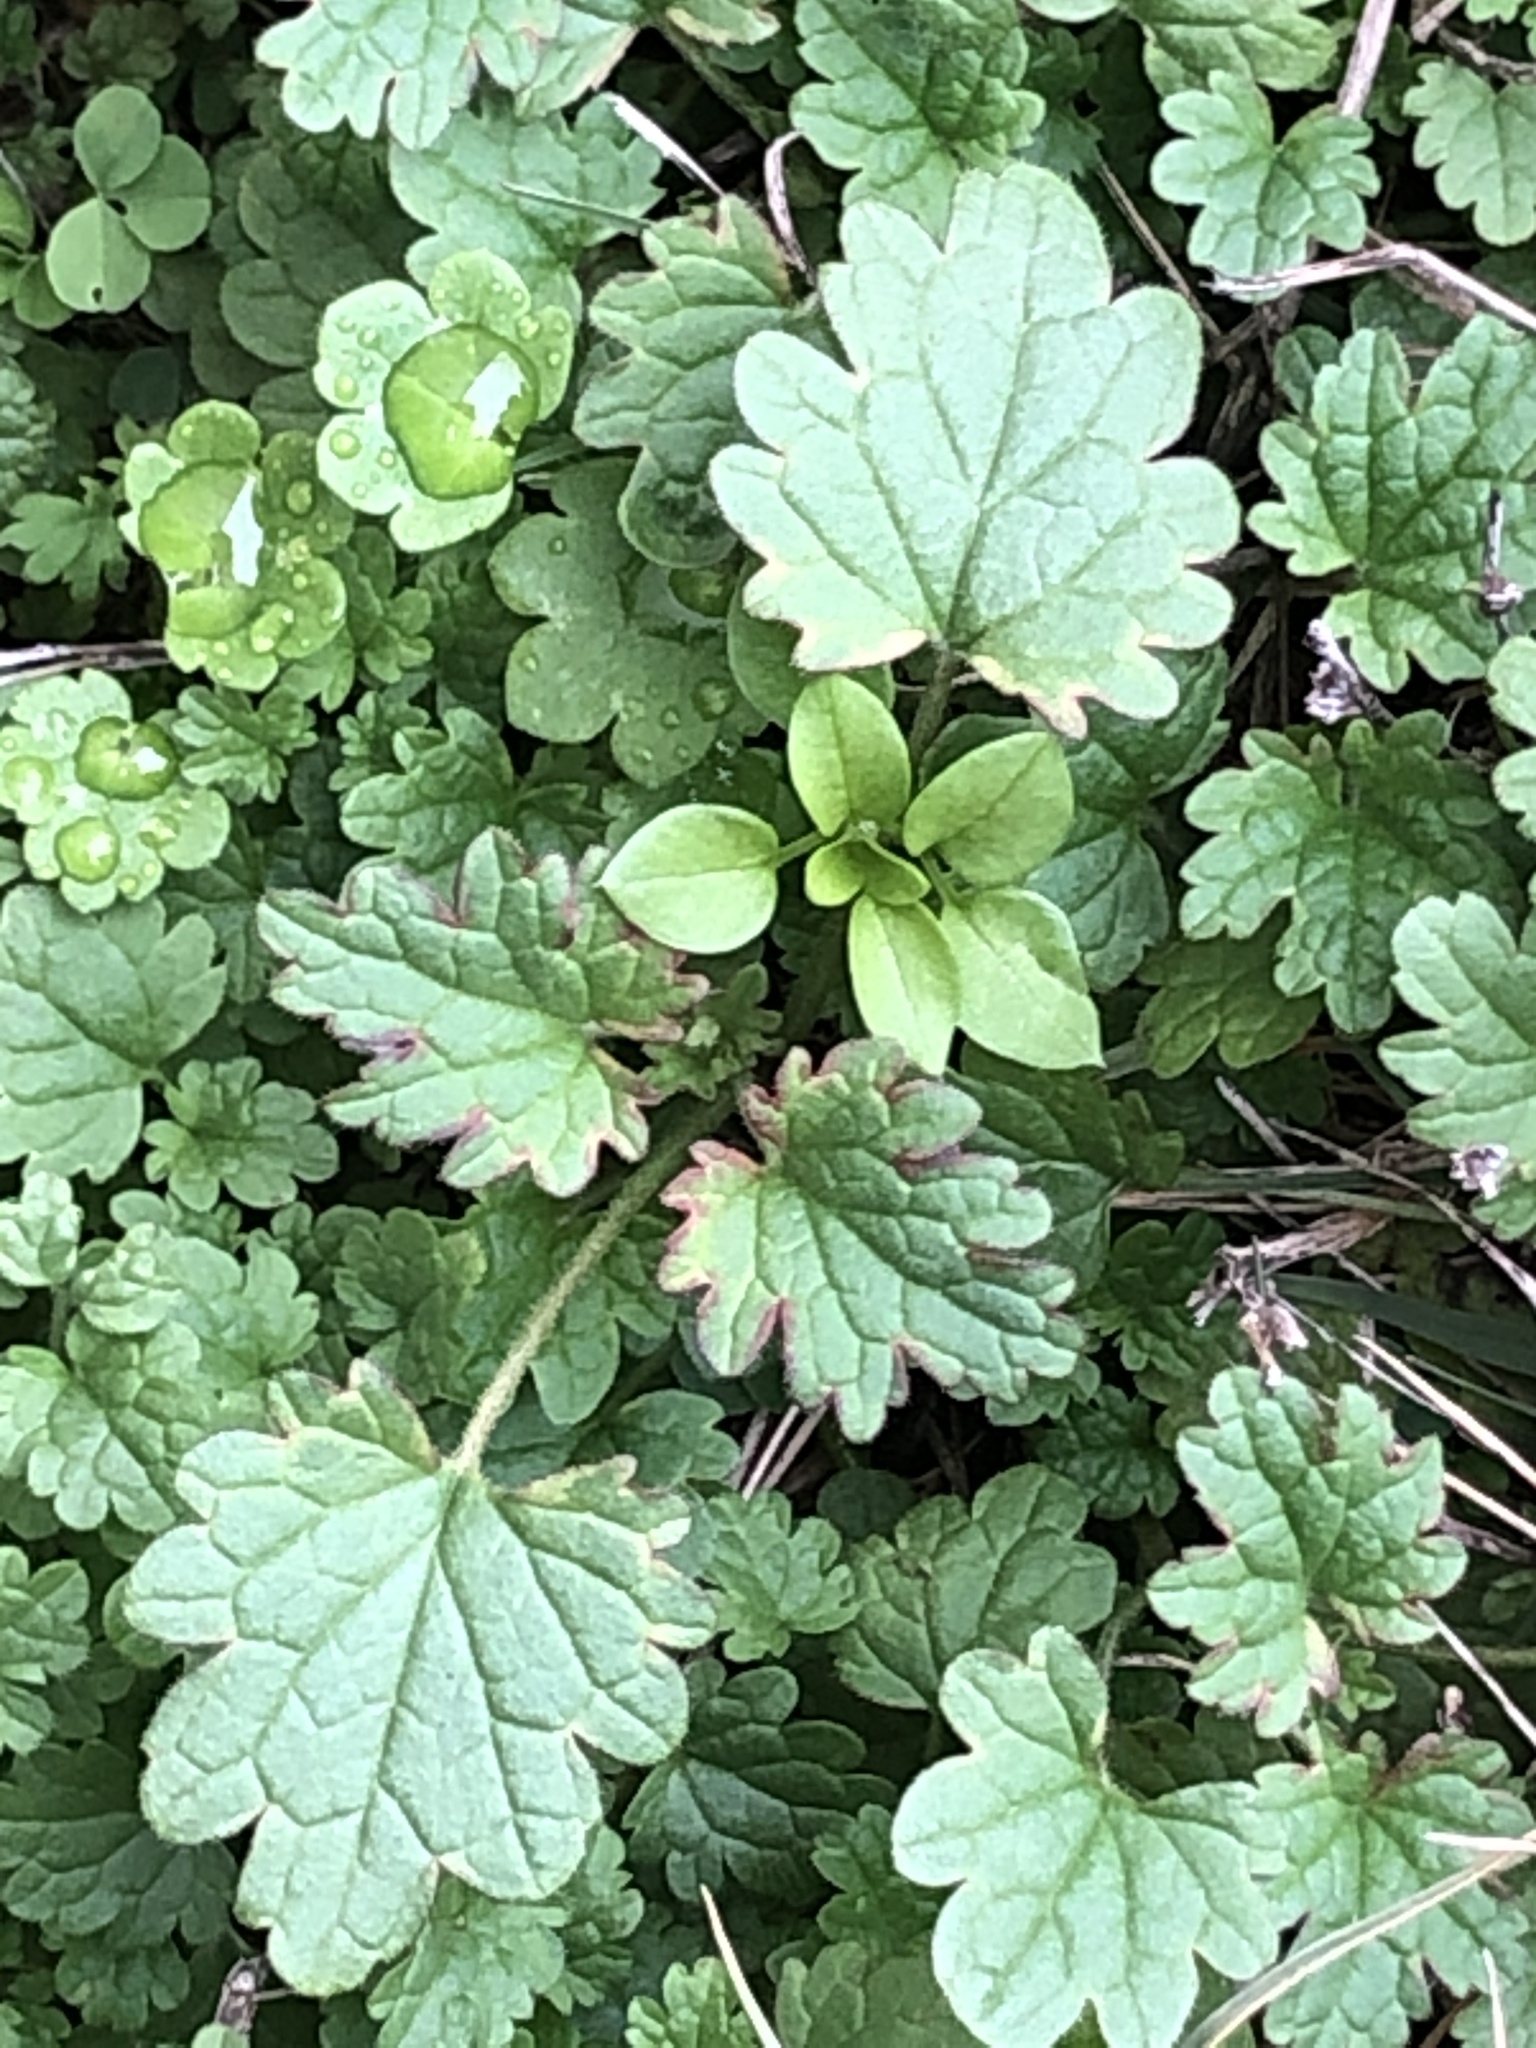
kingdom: Plantae
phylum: Tracheophyta
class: Magnoliopsida
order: Lamiales
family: Lamiaceae
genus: Lamium
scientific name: Lamium amplexicaule
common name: Henbit dead-nettle
